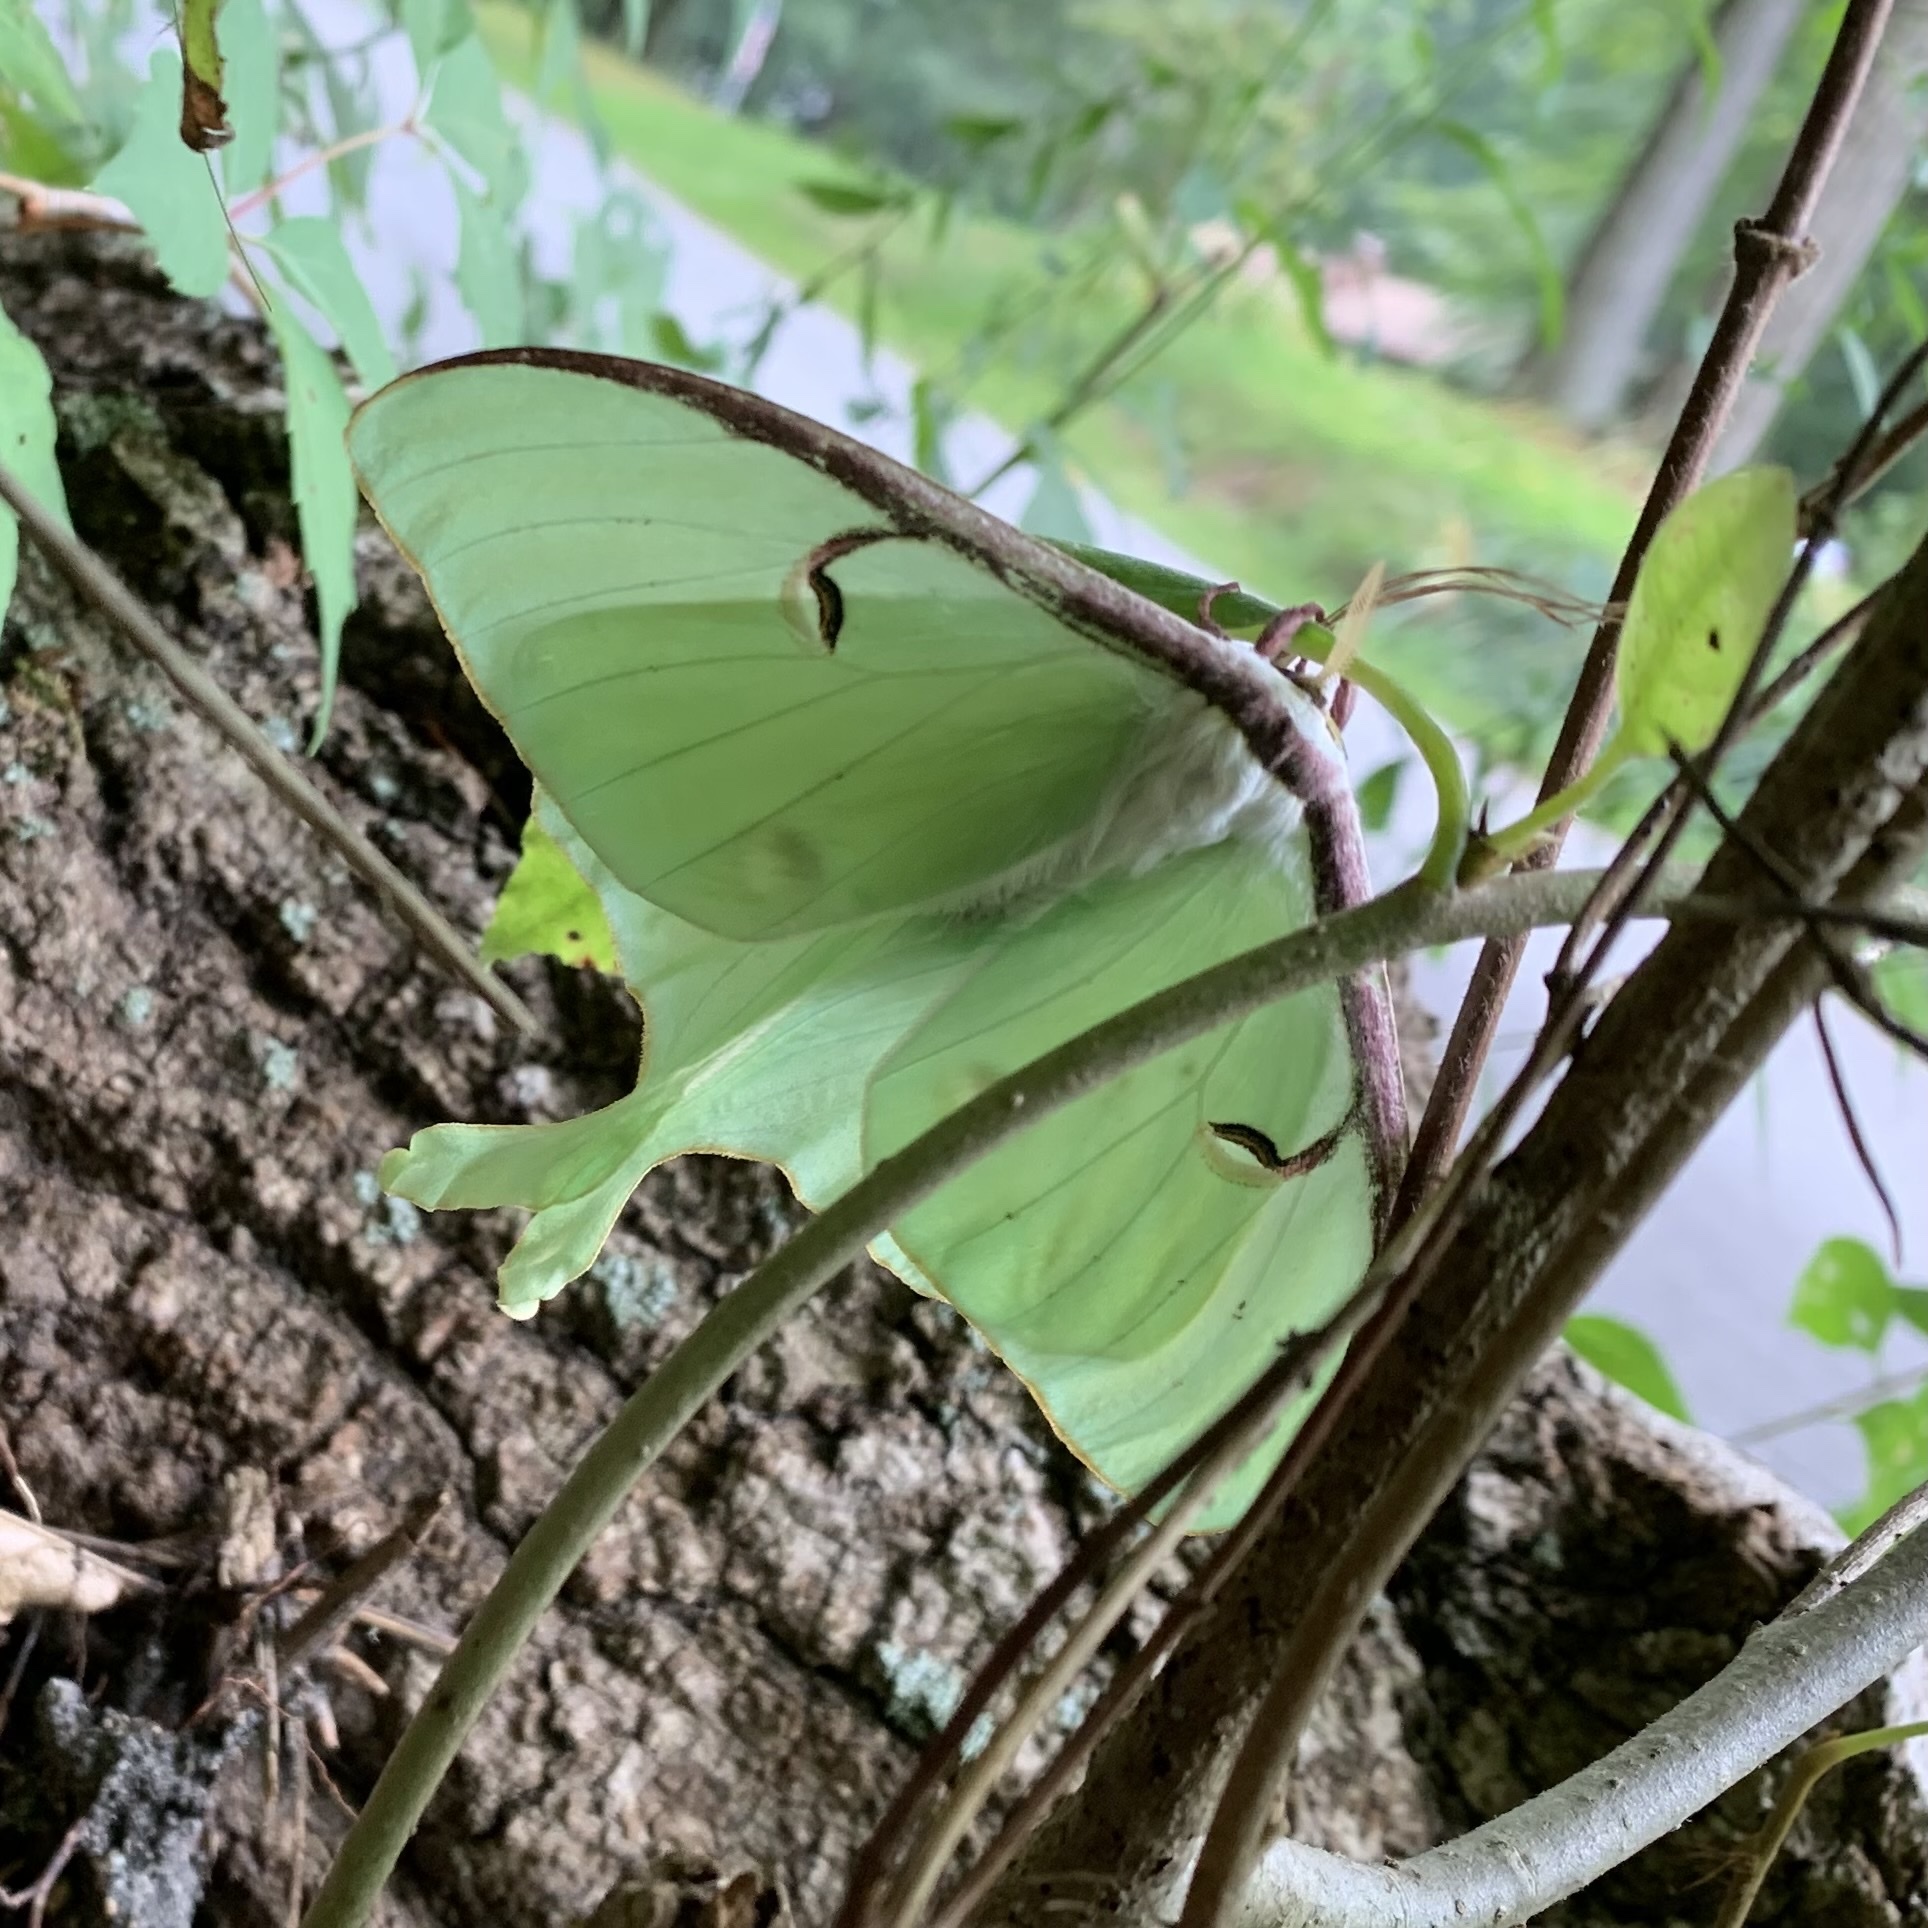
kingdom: Animalia
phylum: Arthropoda
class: Insecta
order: Lepidoptera
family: Saturniidae
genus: Actias
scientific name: Actias luna
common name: Luna moth
